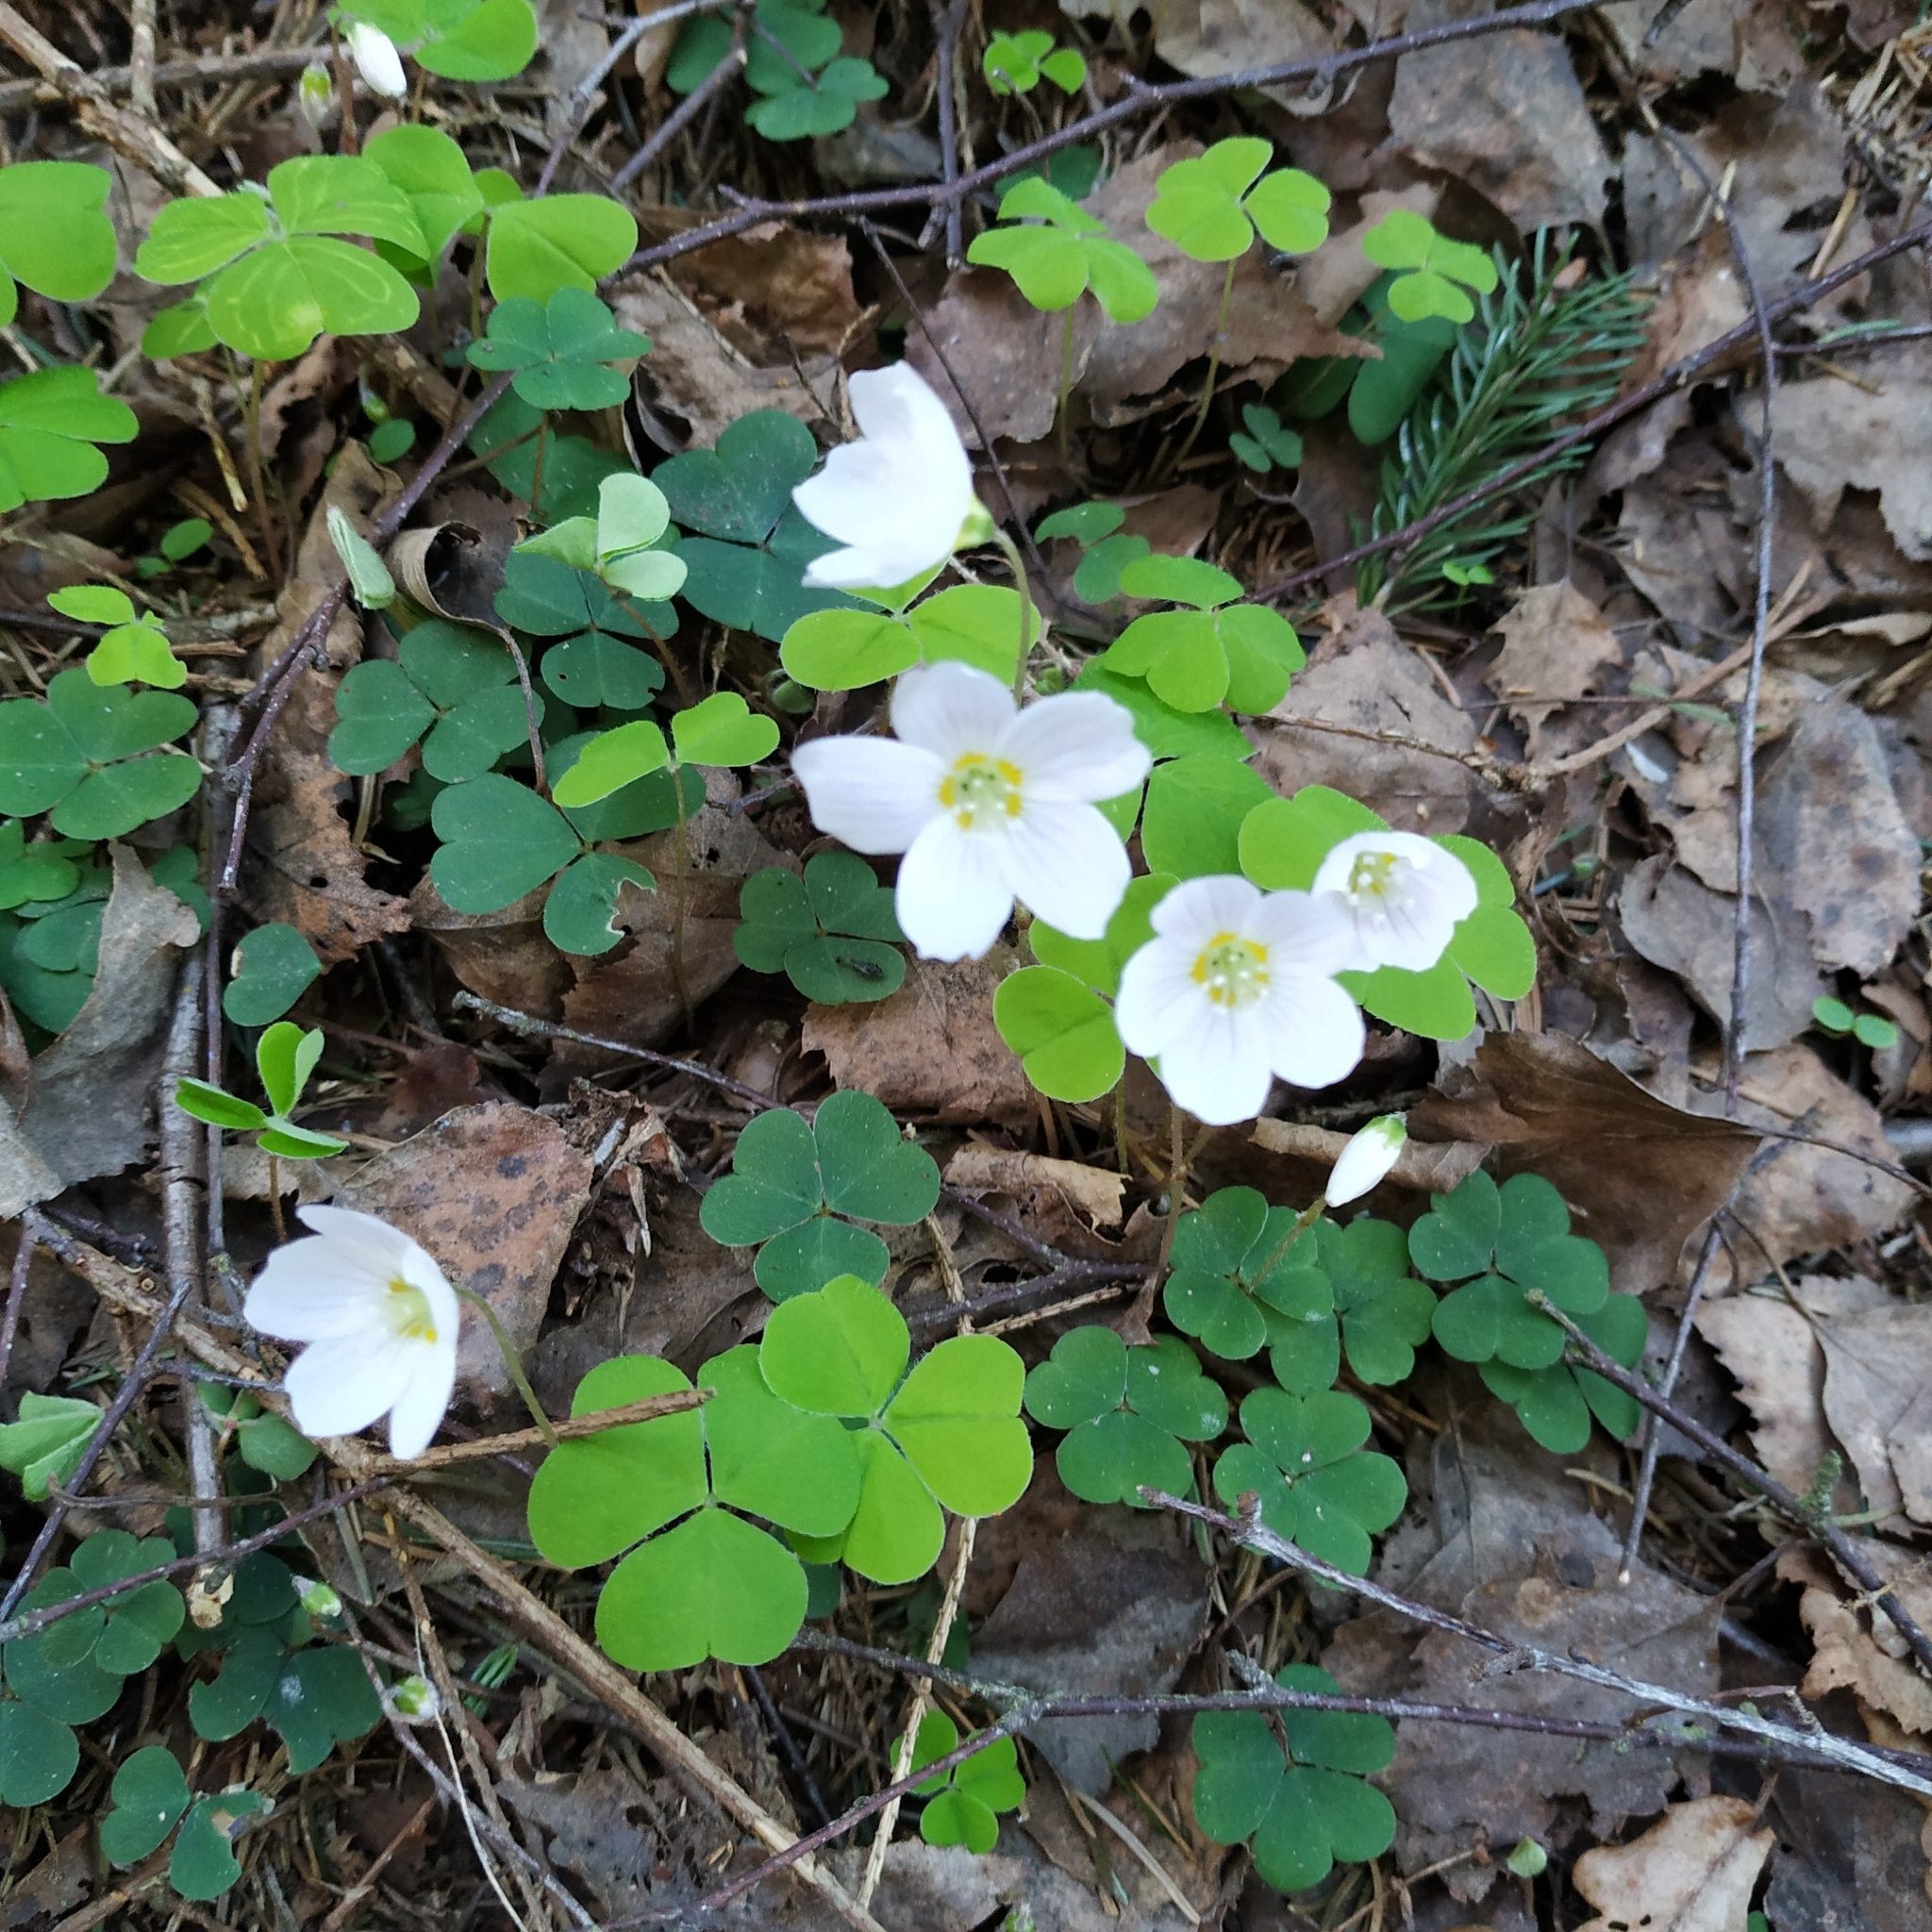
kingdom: Plantae
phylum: Tracheophyta
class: Magnoliopsida
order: Oxalidales
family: Oxalidaceae
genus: Oxalis
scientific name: Oxalis acetosella
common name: Wood-sorrel
